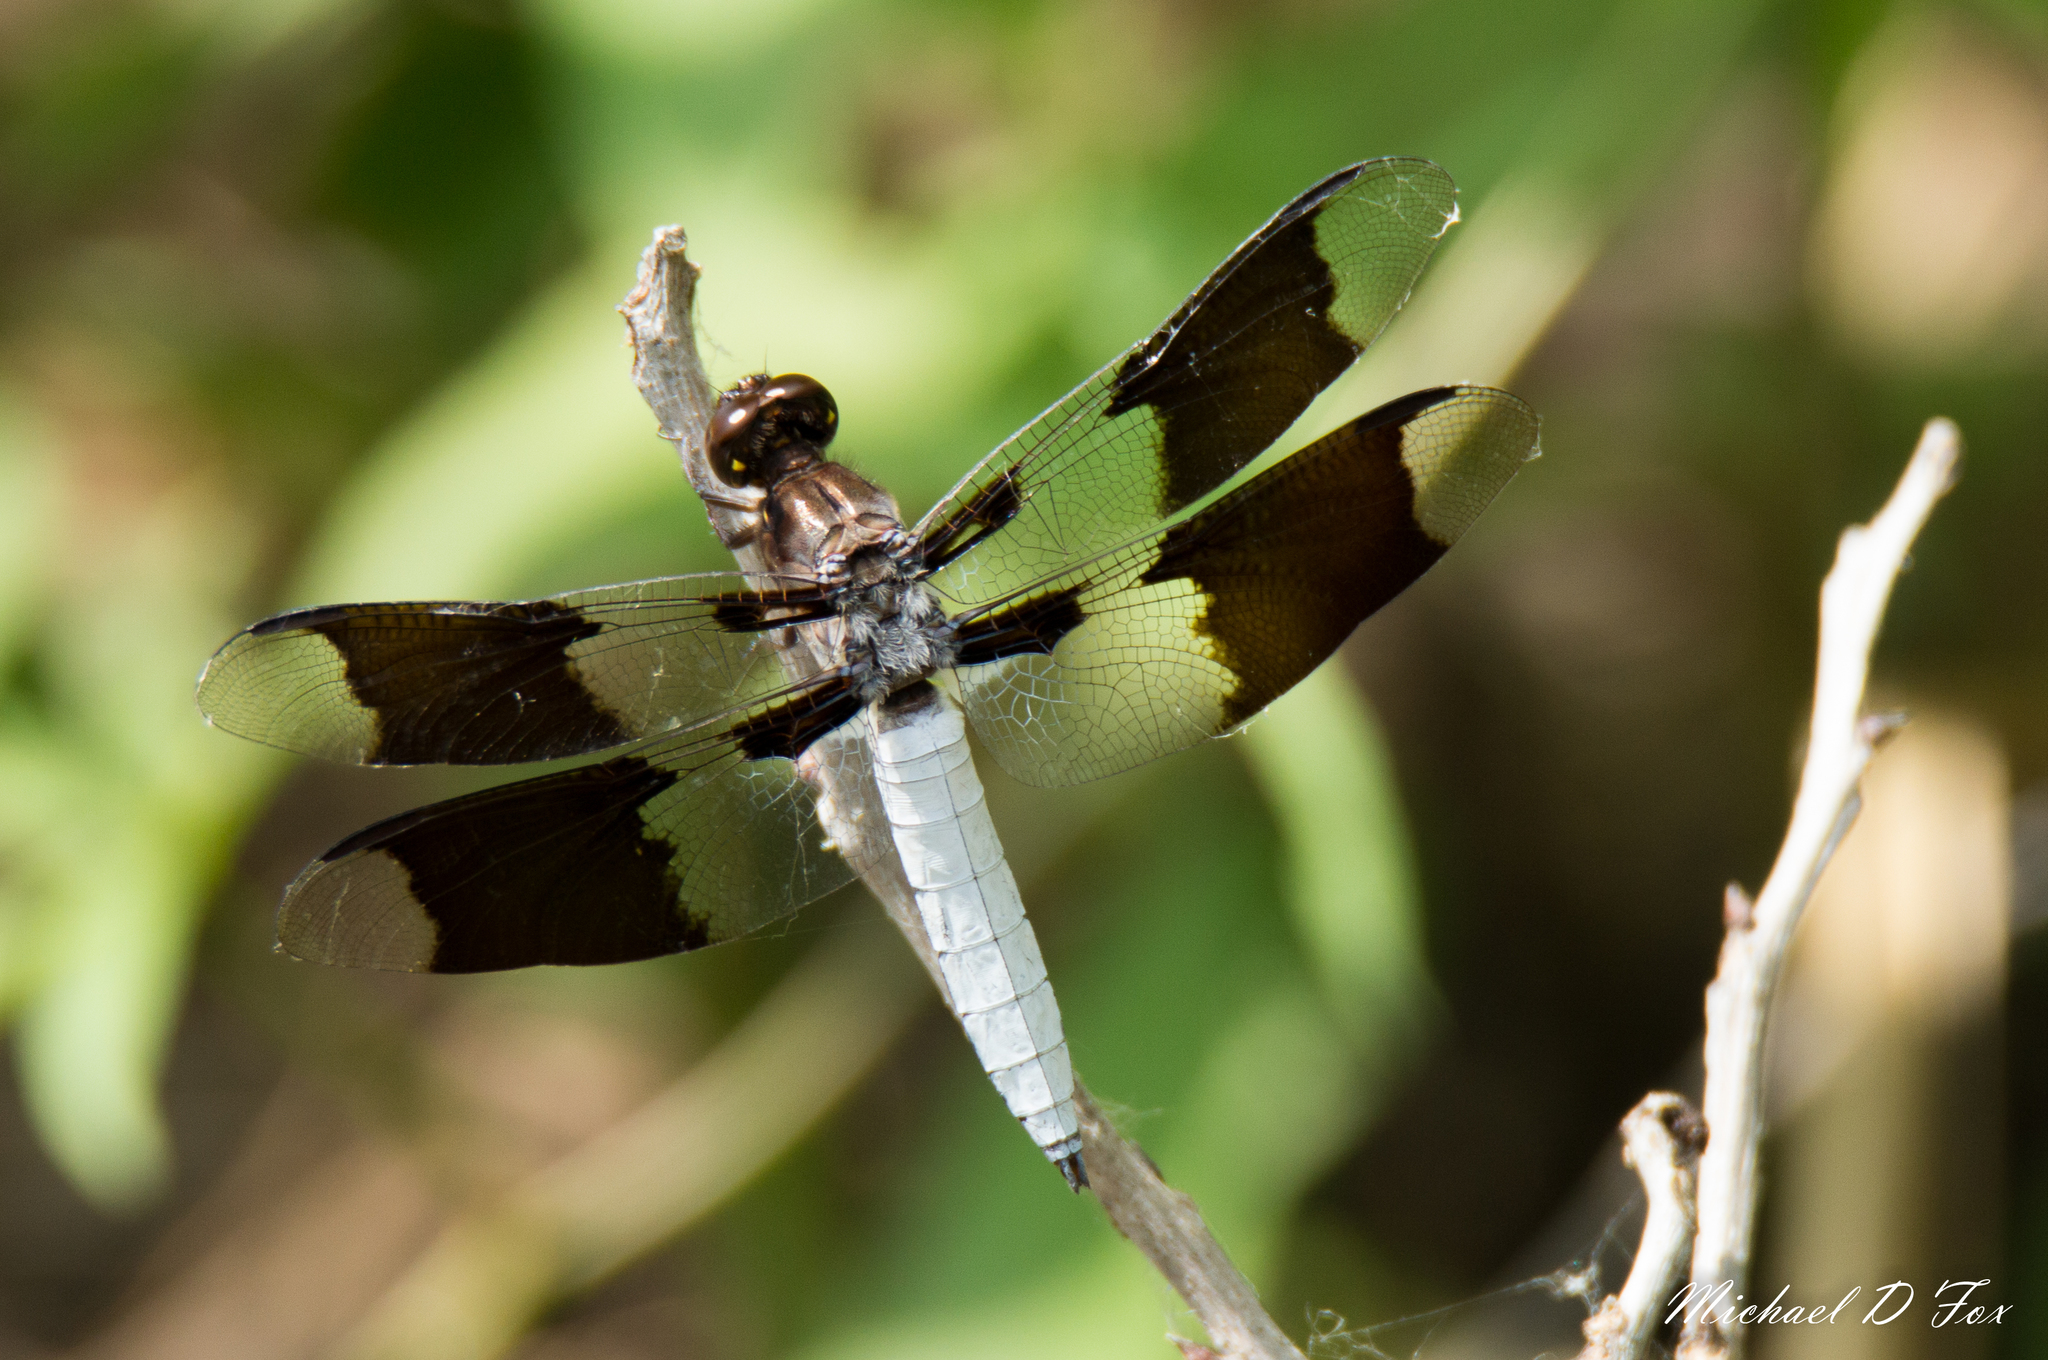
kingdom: Animalia
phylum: Arthropoda
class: Insecta
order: Odonata
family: Libellulidae
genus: Plathemis
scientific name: Plathemis lydia
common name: Common whitetail
